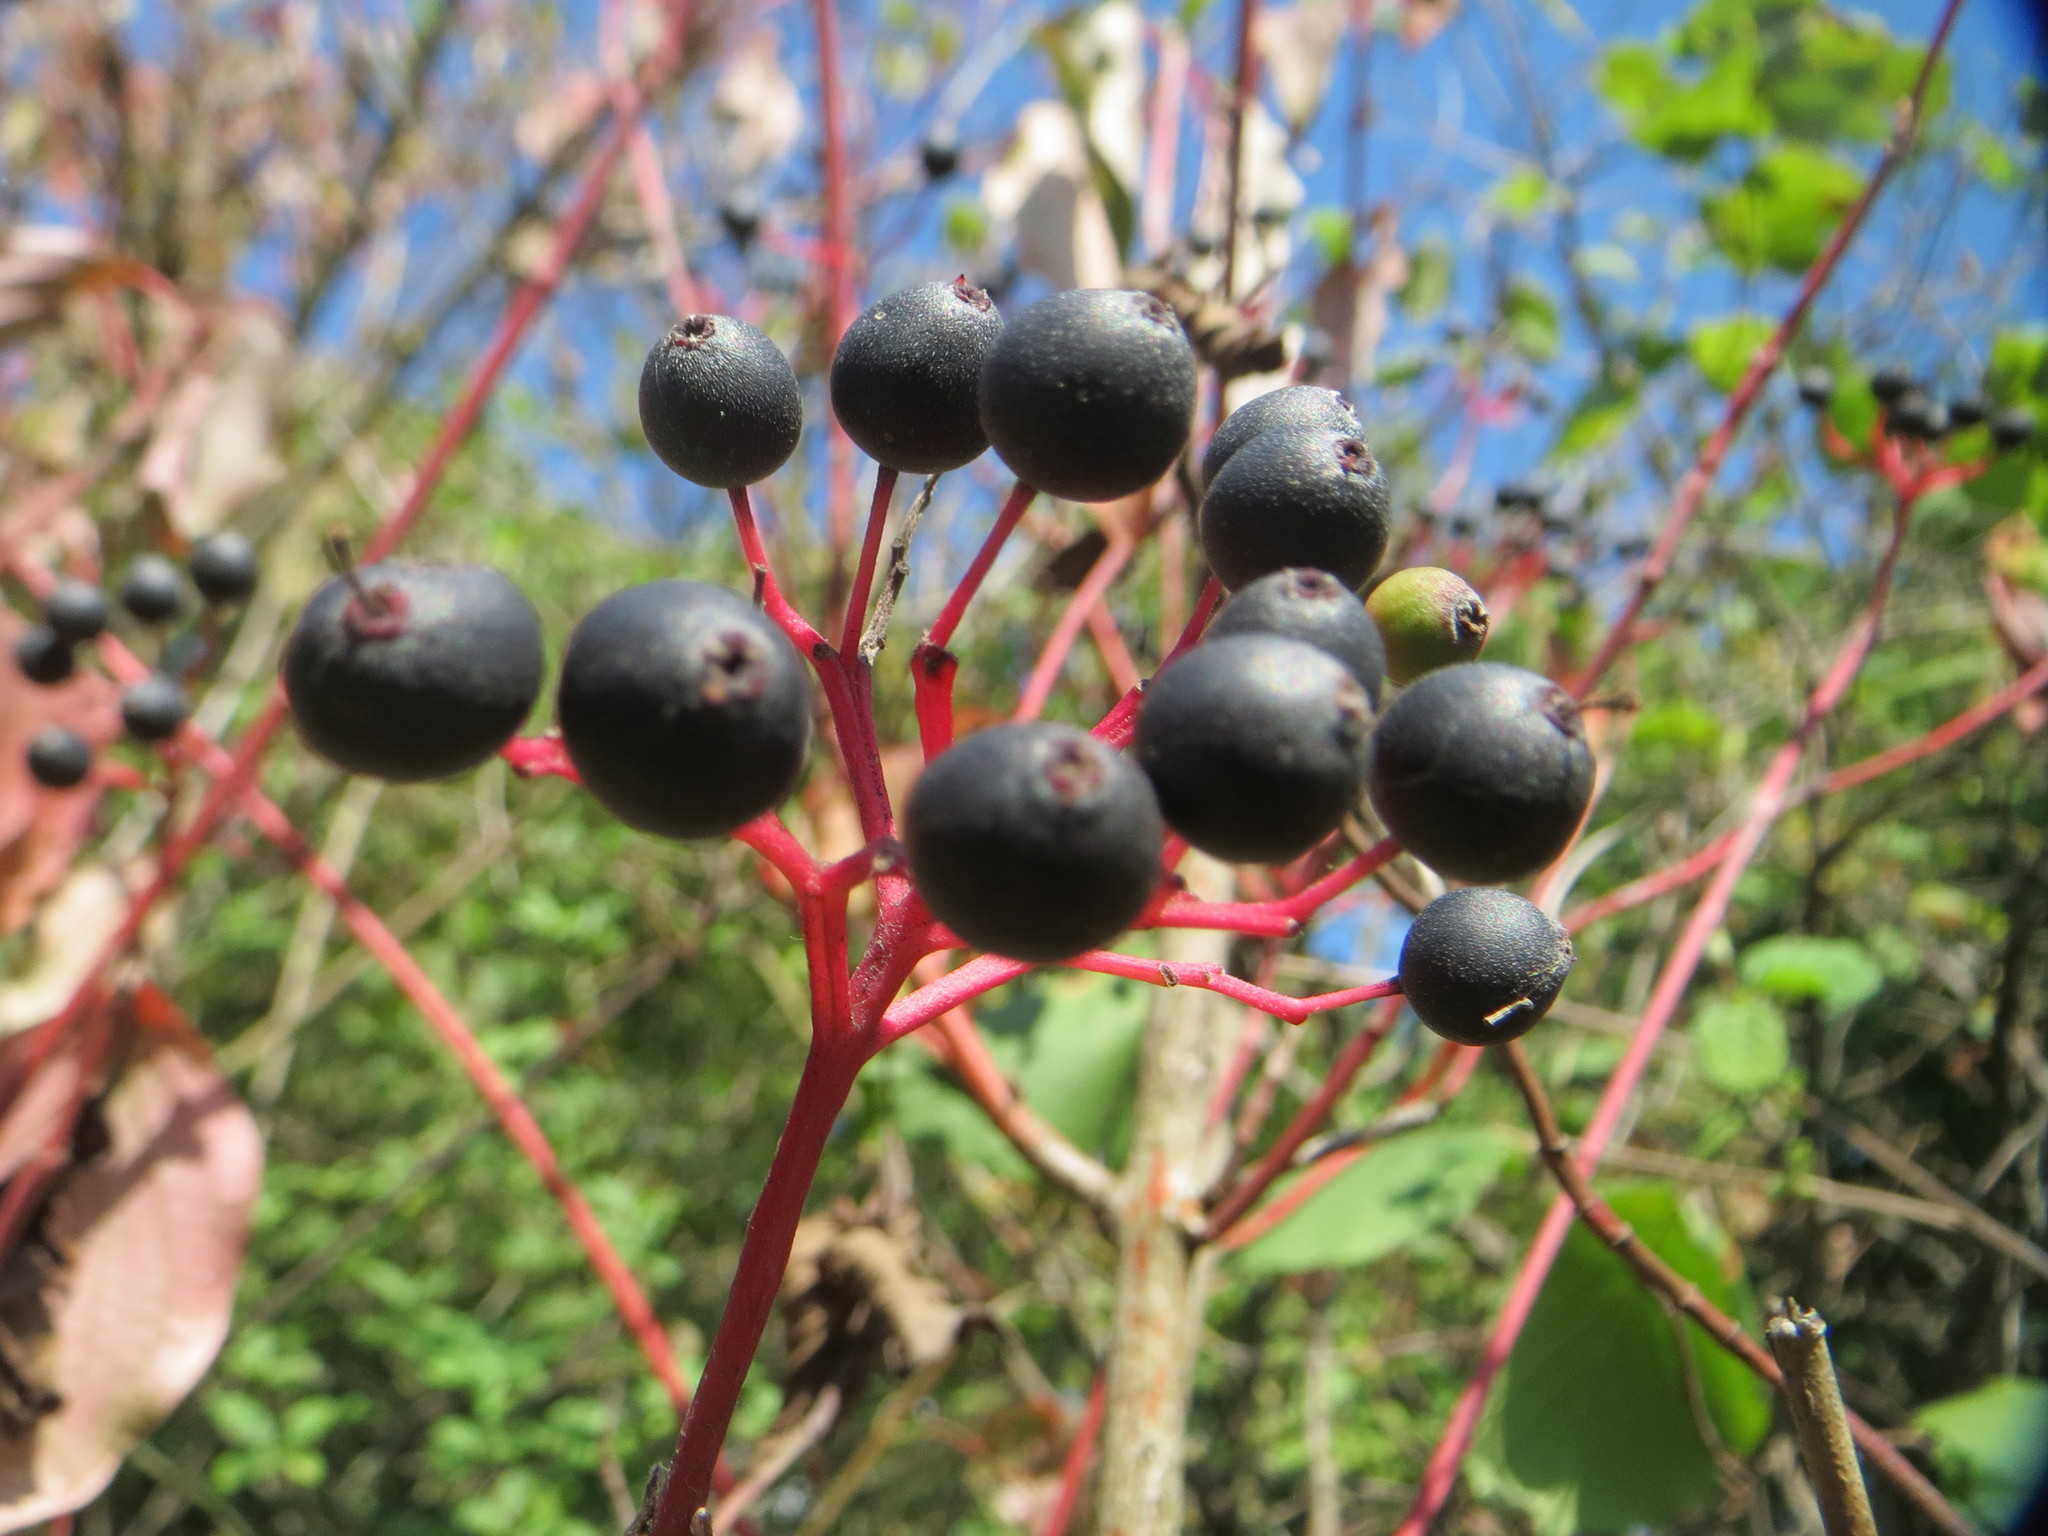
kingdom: Plantae
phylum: Tracheophyta
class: Magnoliopsida
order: Cornales
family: Cornaceae
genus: Cornus
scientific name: Cornus sanguinea
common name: Dogwood
